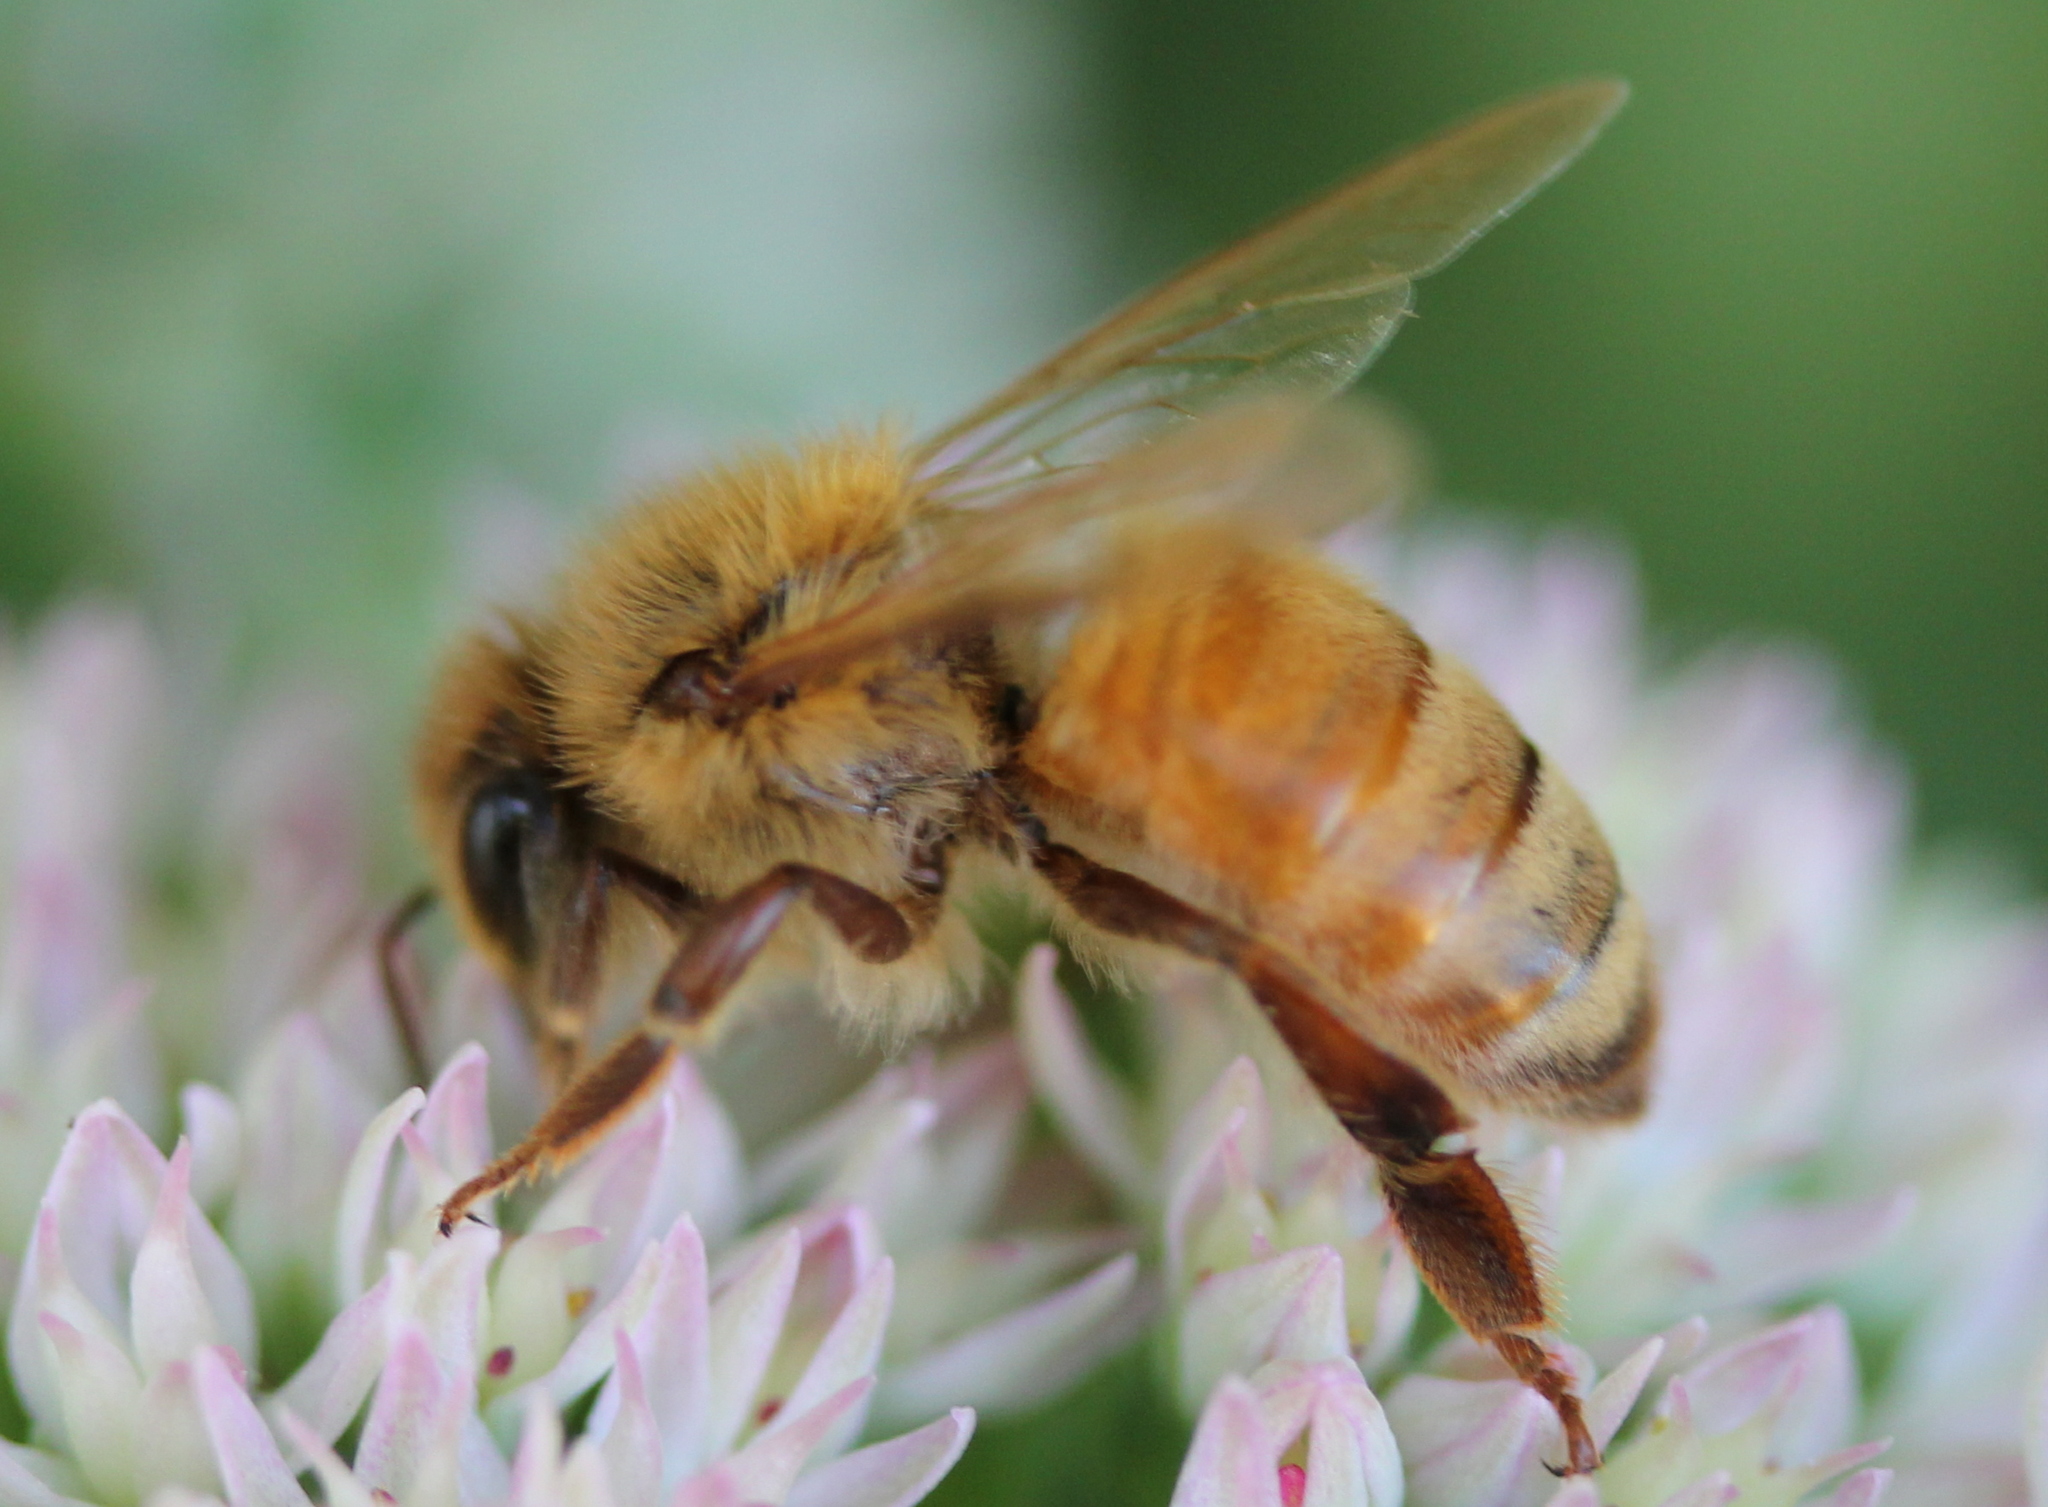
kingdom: Animalia
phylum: Arthropoda
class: Insecta
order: Hymenoptera
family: Apidae
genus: Apis
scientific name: Apis mellifera
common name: Honey bee
